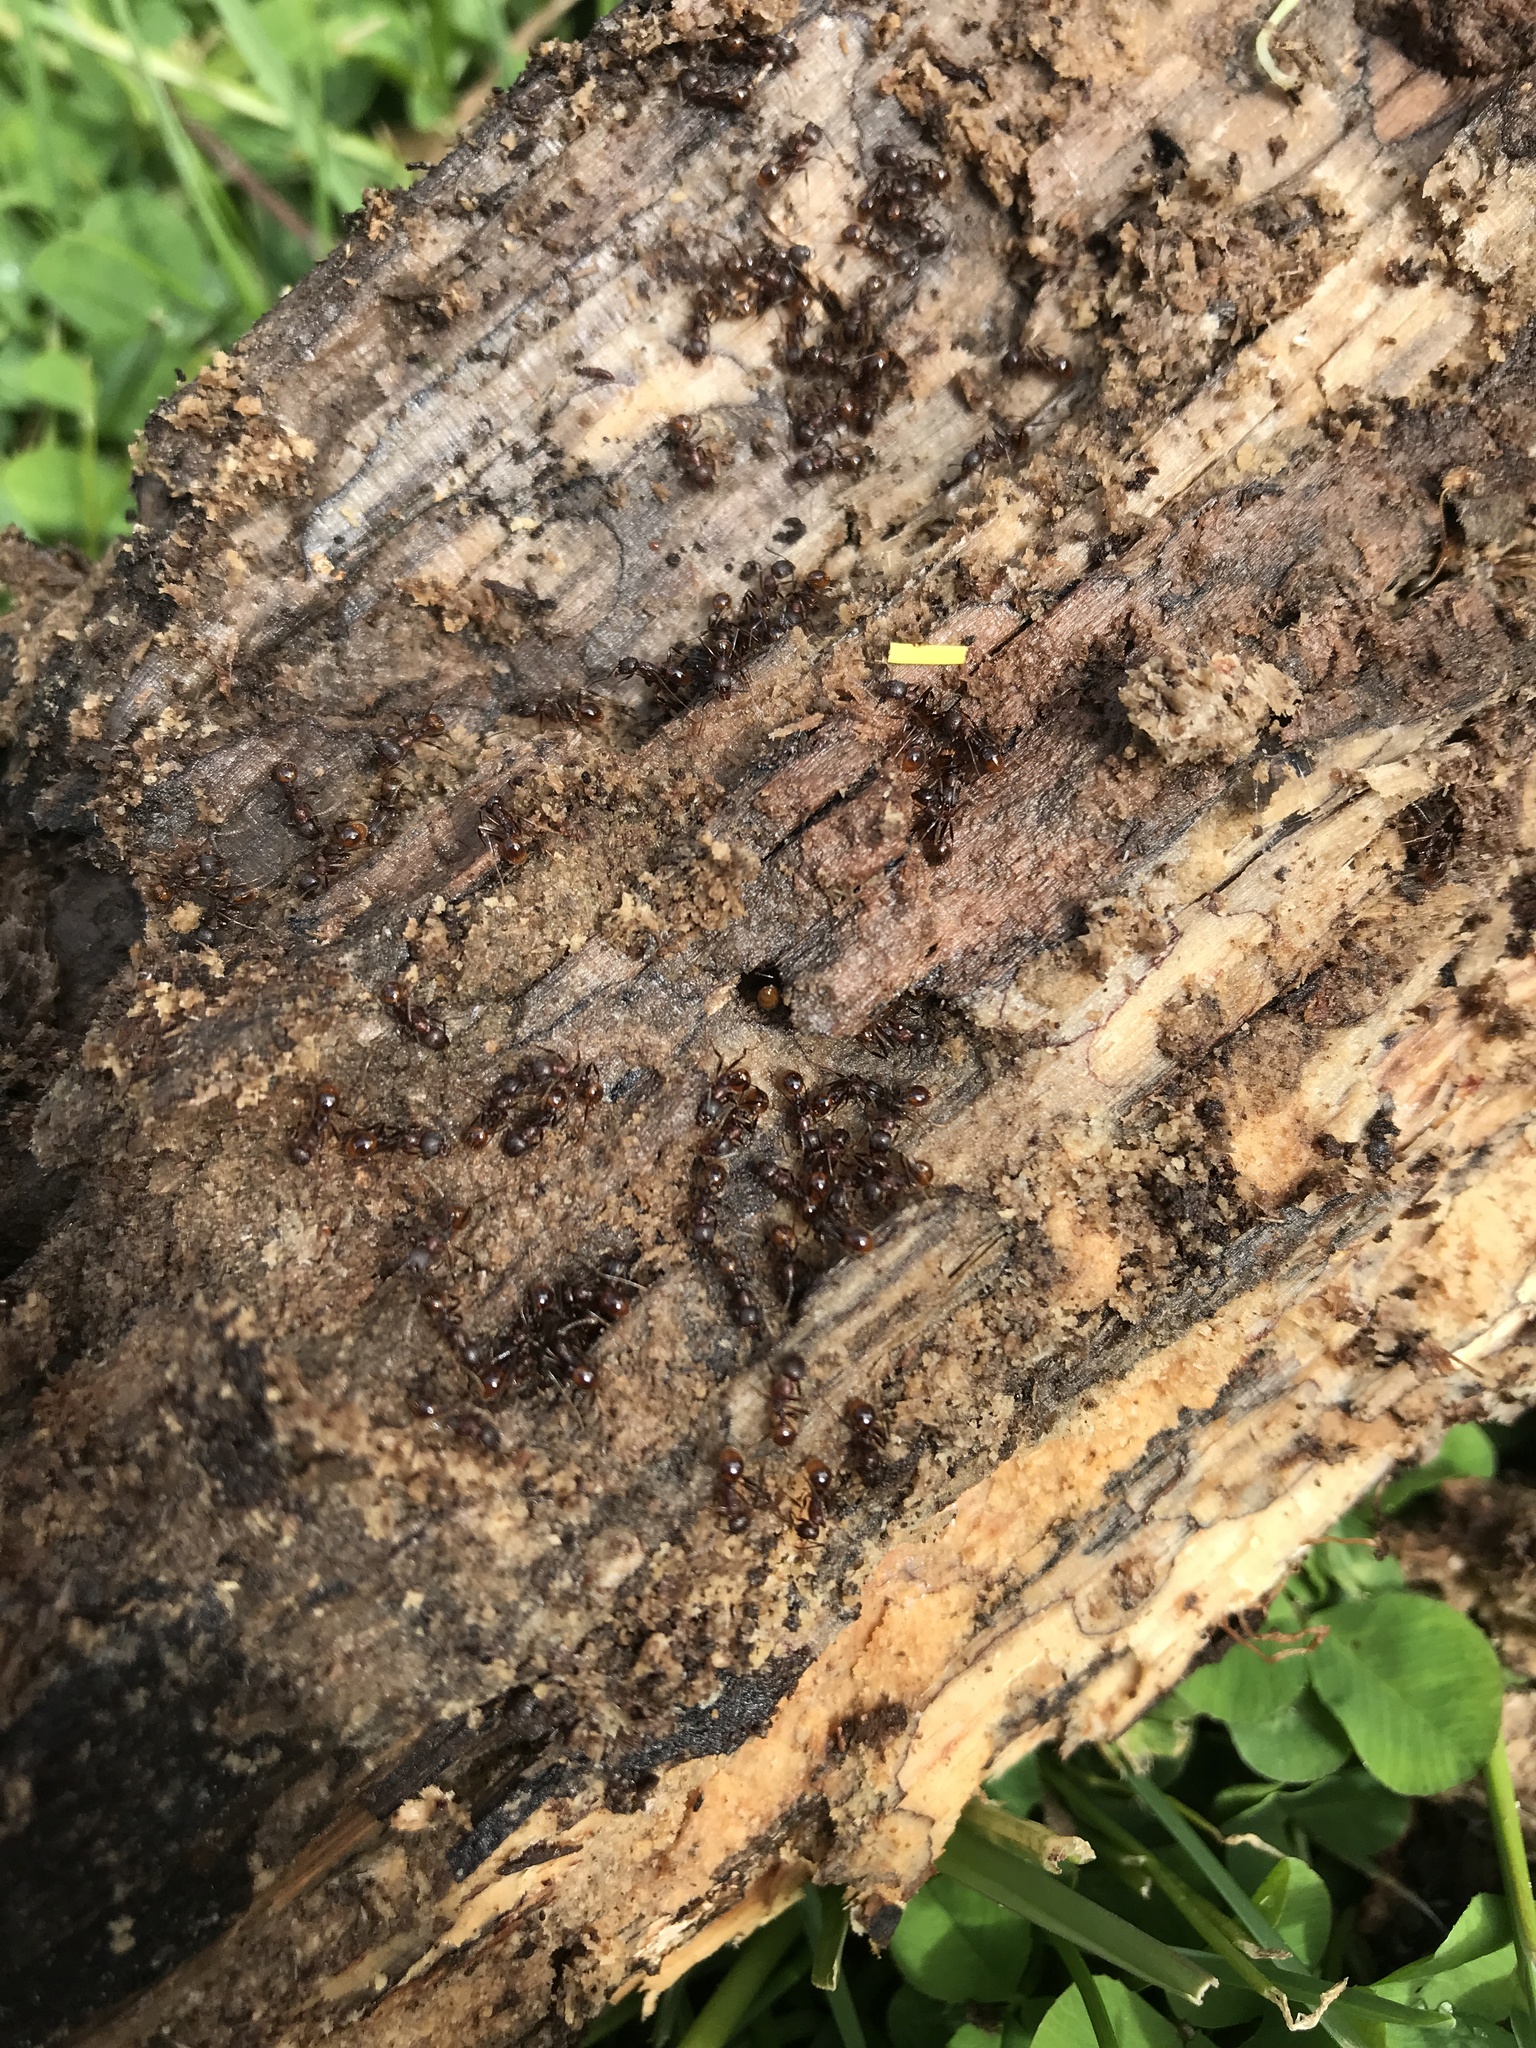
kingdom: Animalia
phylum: Arthropoda
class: Insecta
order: Hymenoptera
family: Formicidae
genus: Aphaenogaster
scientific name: Aphaenogaster fulva
